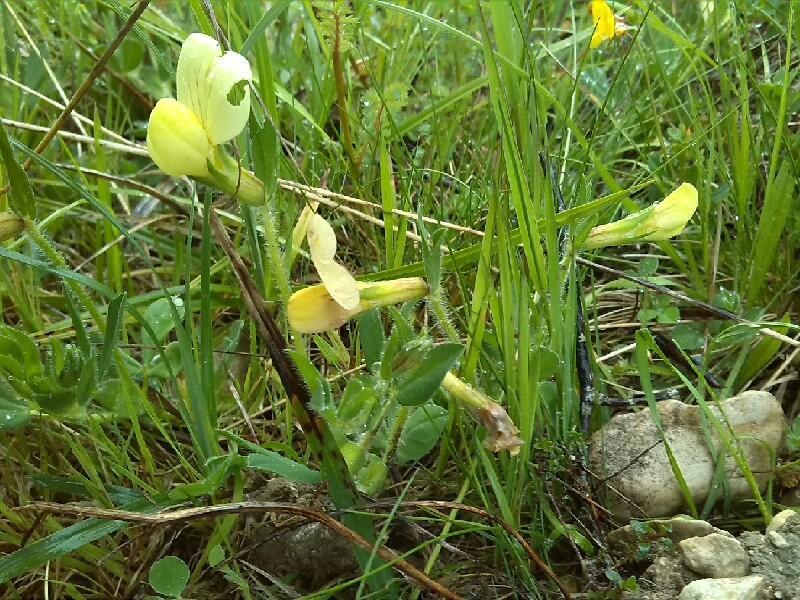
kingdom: Plantae
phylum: Tracheophyta
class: Magnoliopsida
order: Fabales
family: Fabaceae
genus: Lotus
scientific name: Lotus maritimus
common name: Dragon's-teeth
